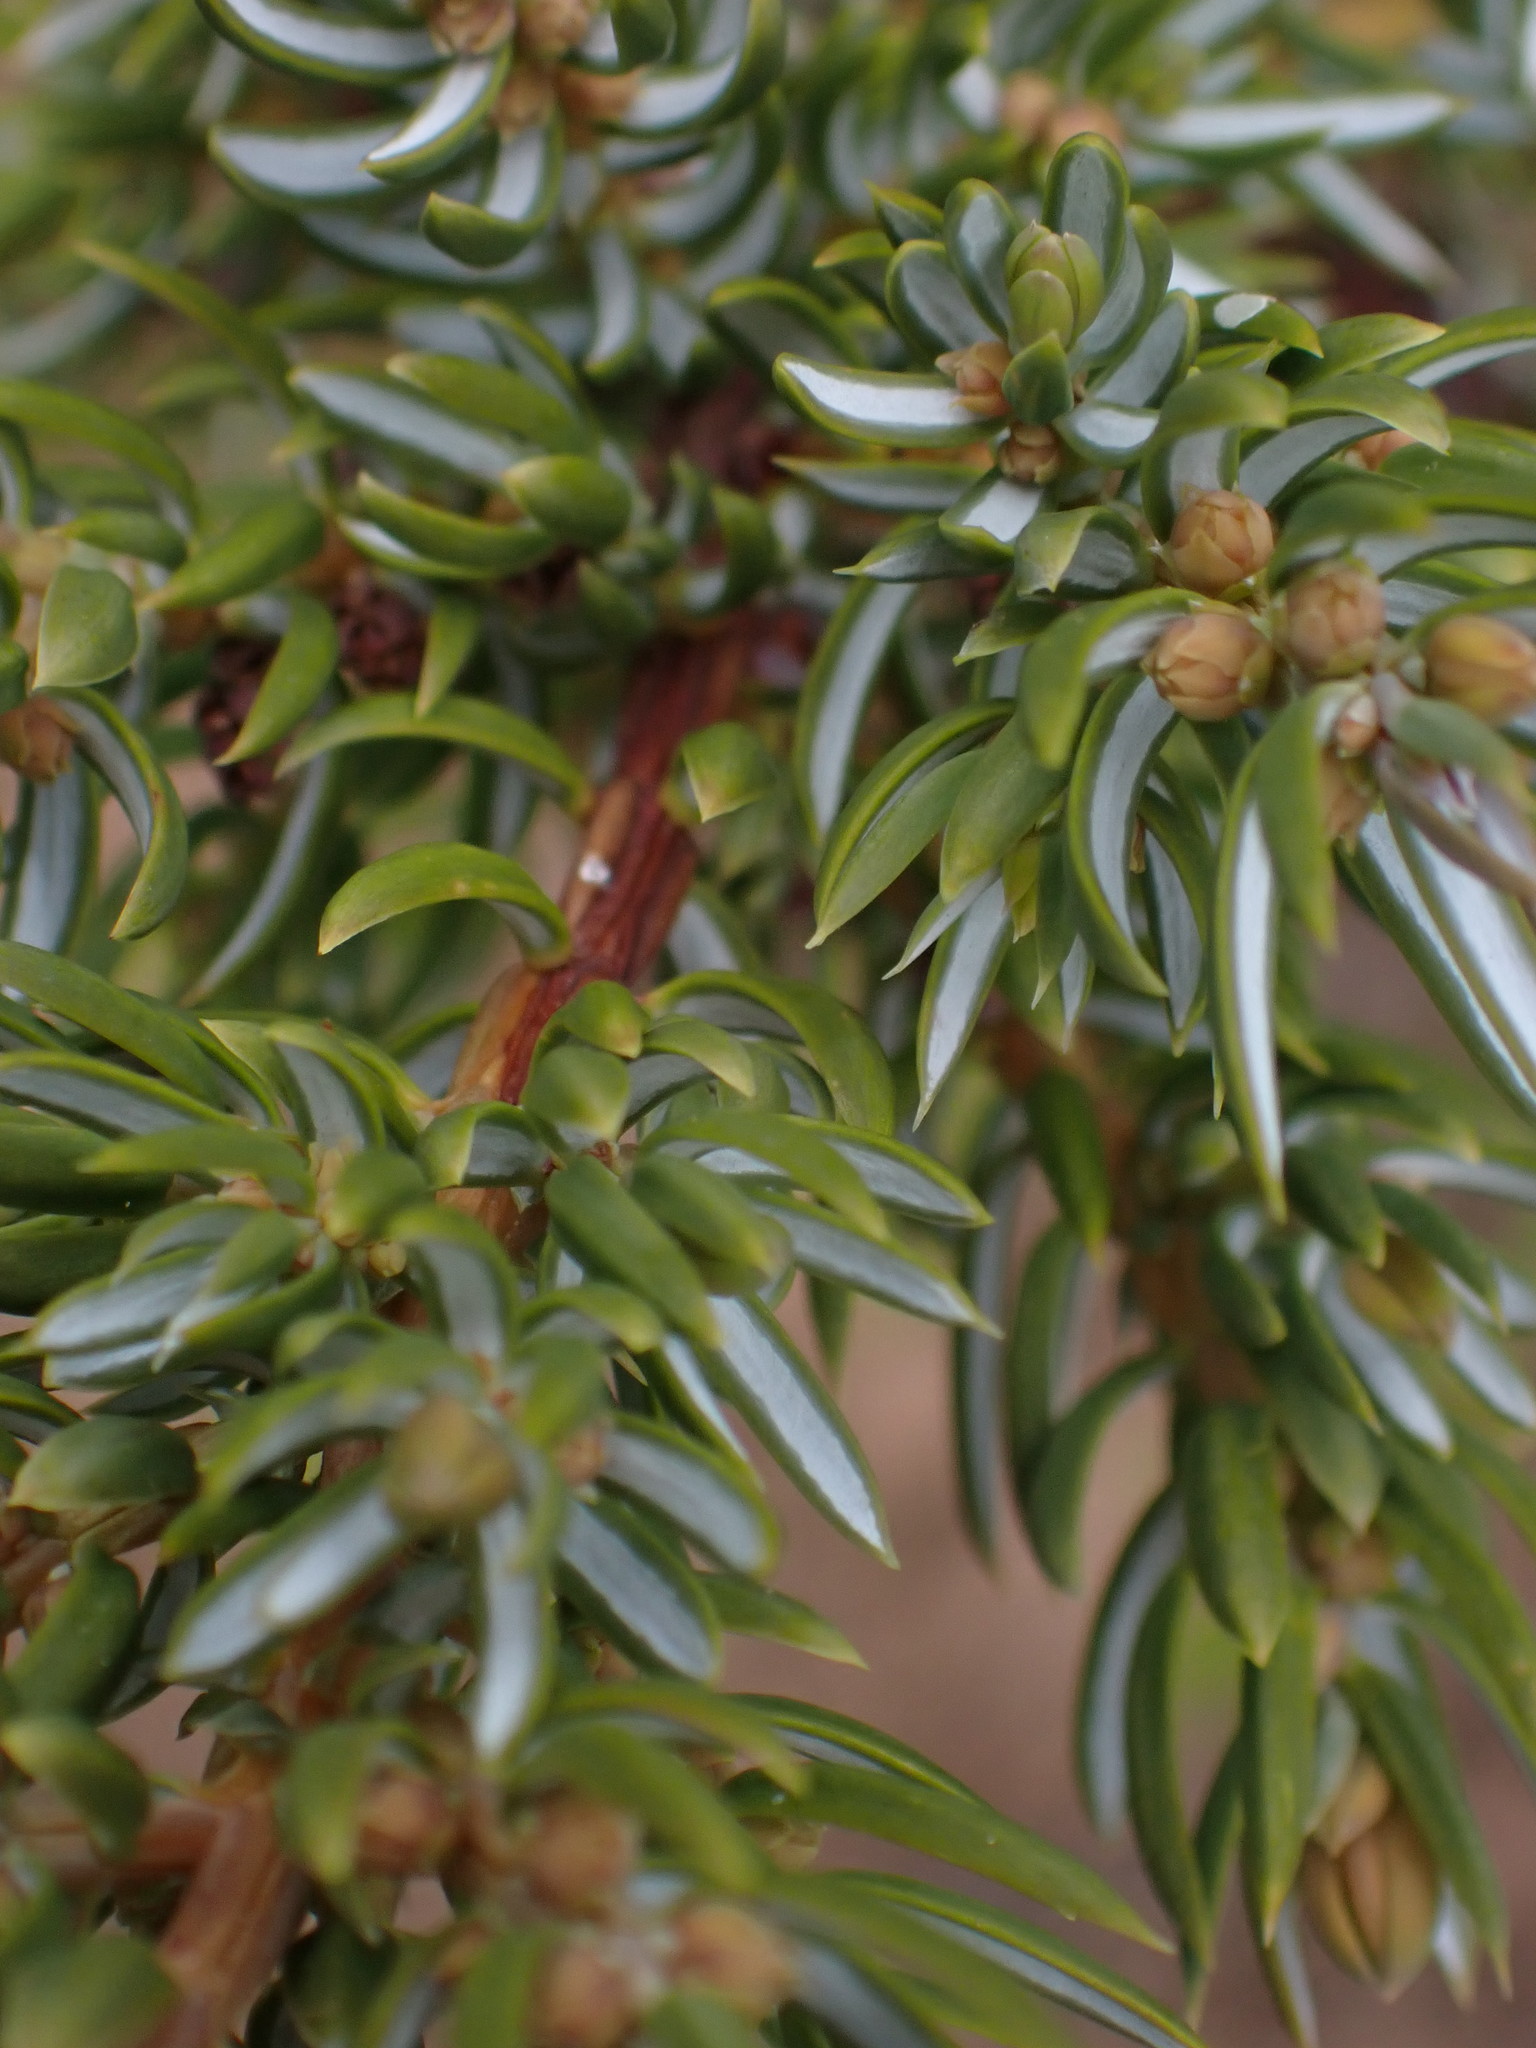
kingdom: Plantae
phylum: Tracheophyta
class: Pinopsida
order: Pinales
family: Cupressaceae
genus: Juniperus
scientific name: Juniperus communis
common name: Common juniper
